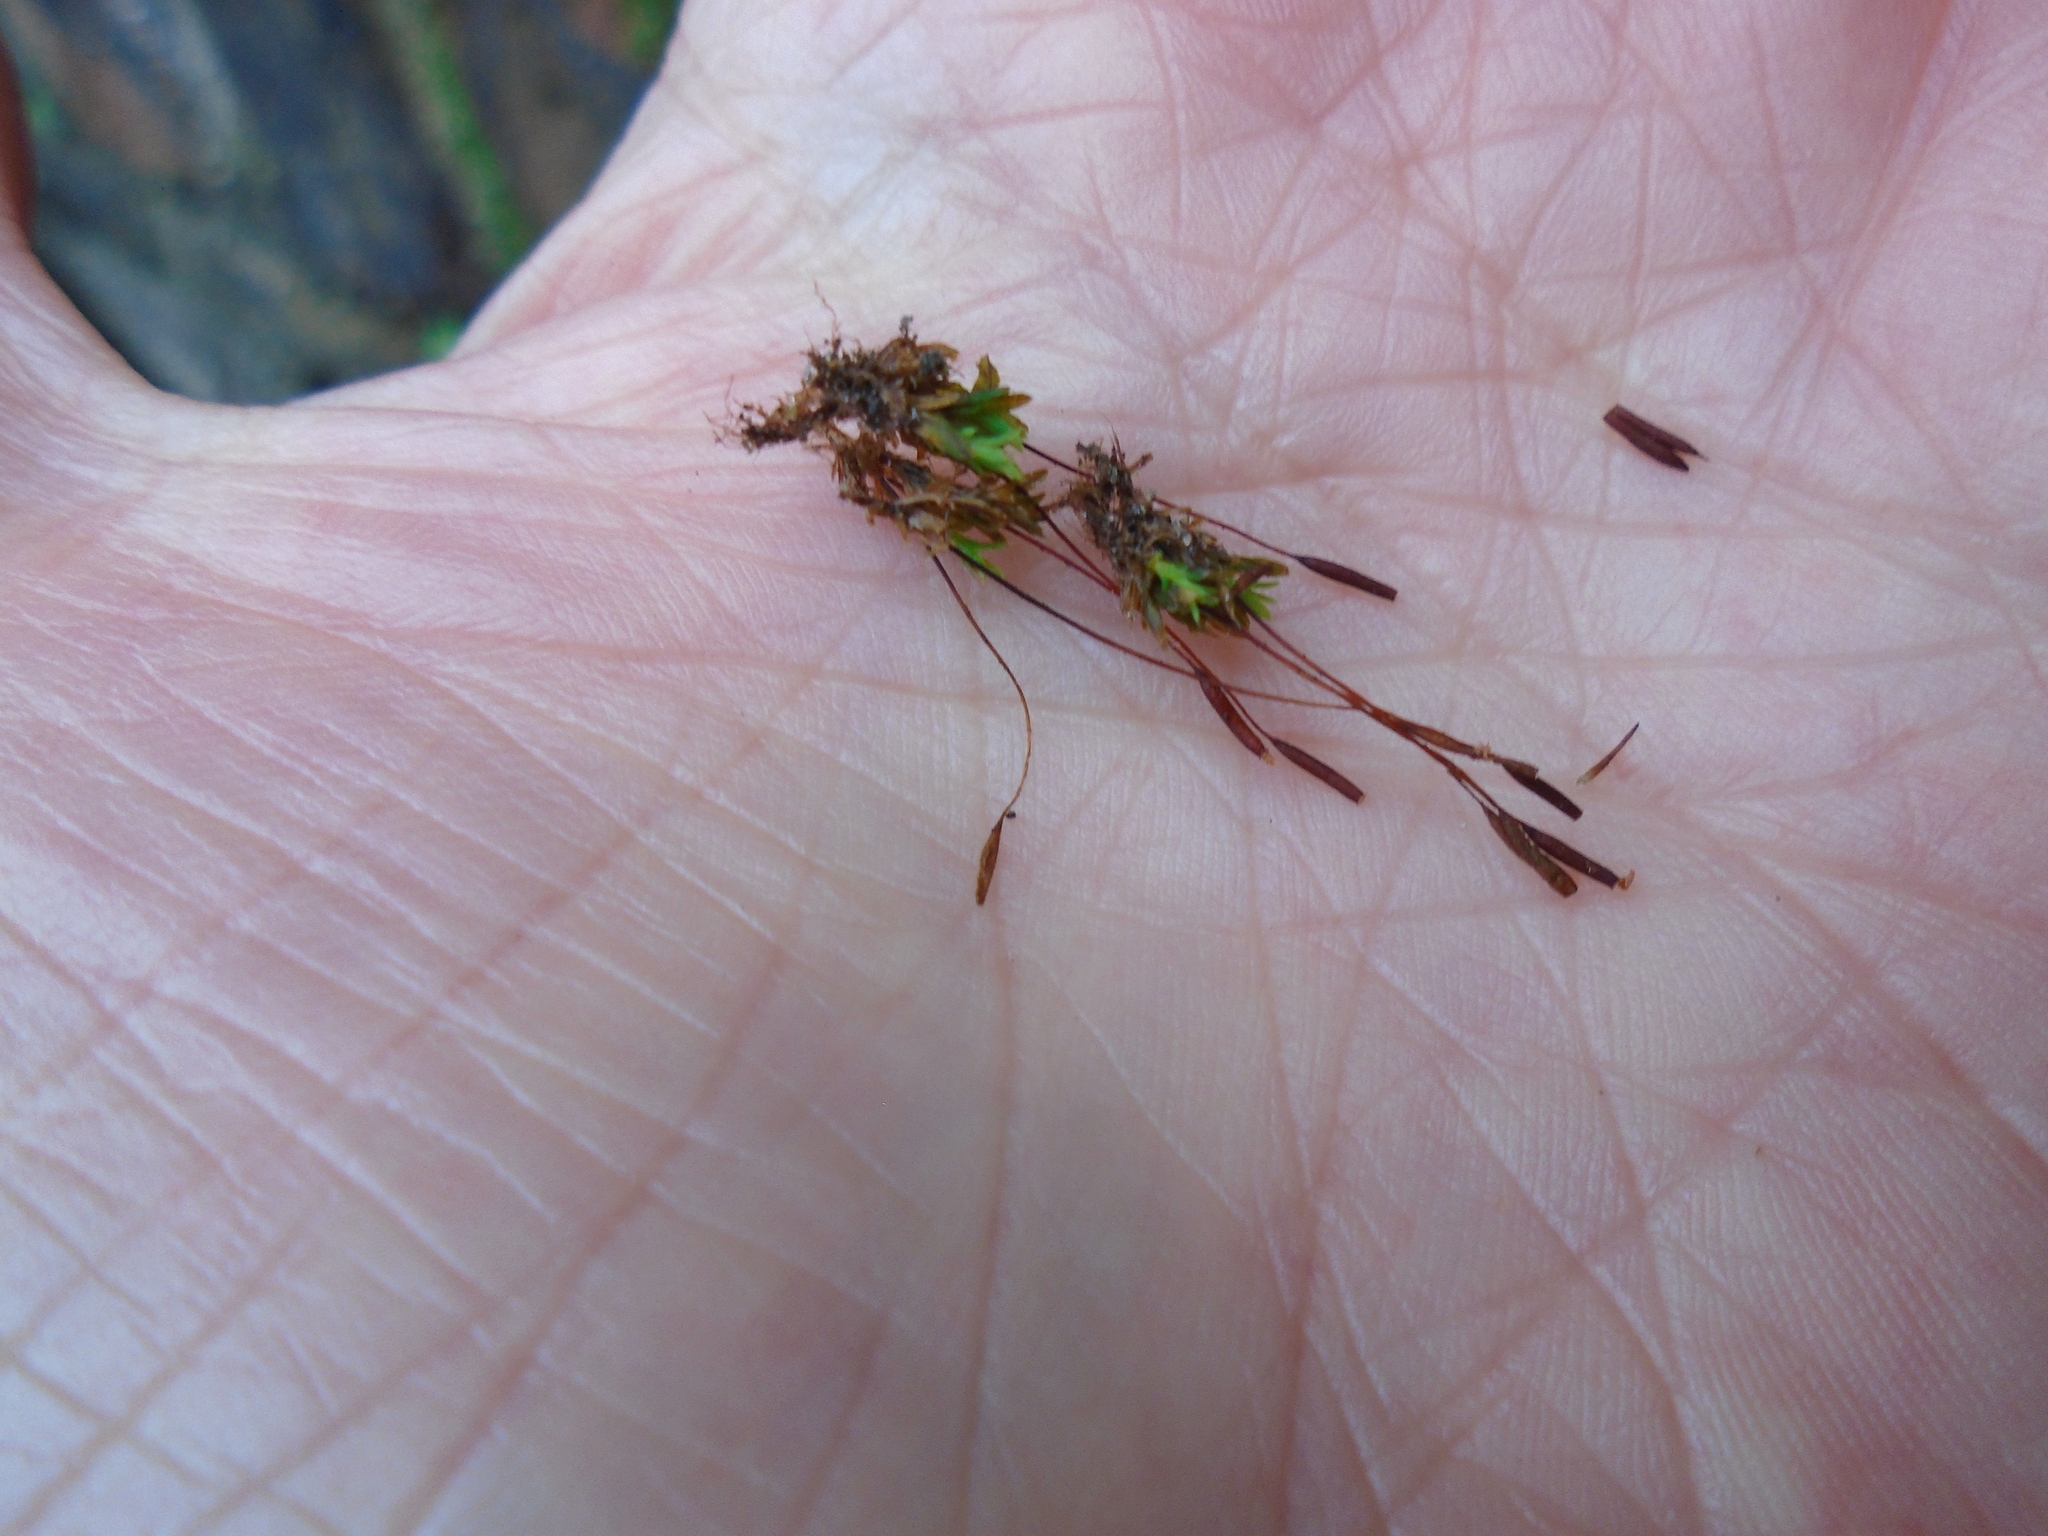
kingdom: Plantae
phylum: Bryophyta
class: Bryopsida
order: Pottiales
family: Pottiaceae
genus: Tortula
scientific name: Tortula muralis
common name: Wall screw-moss
